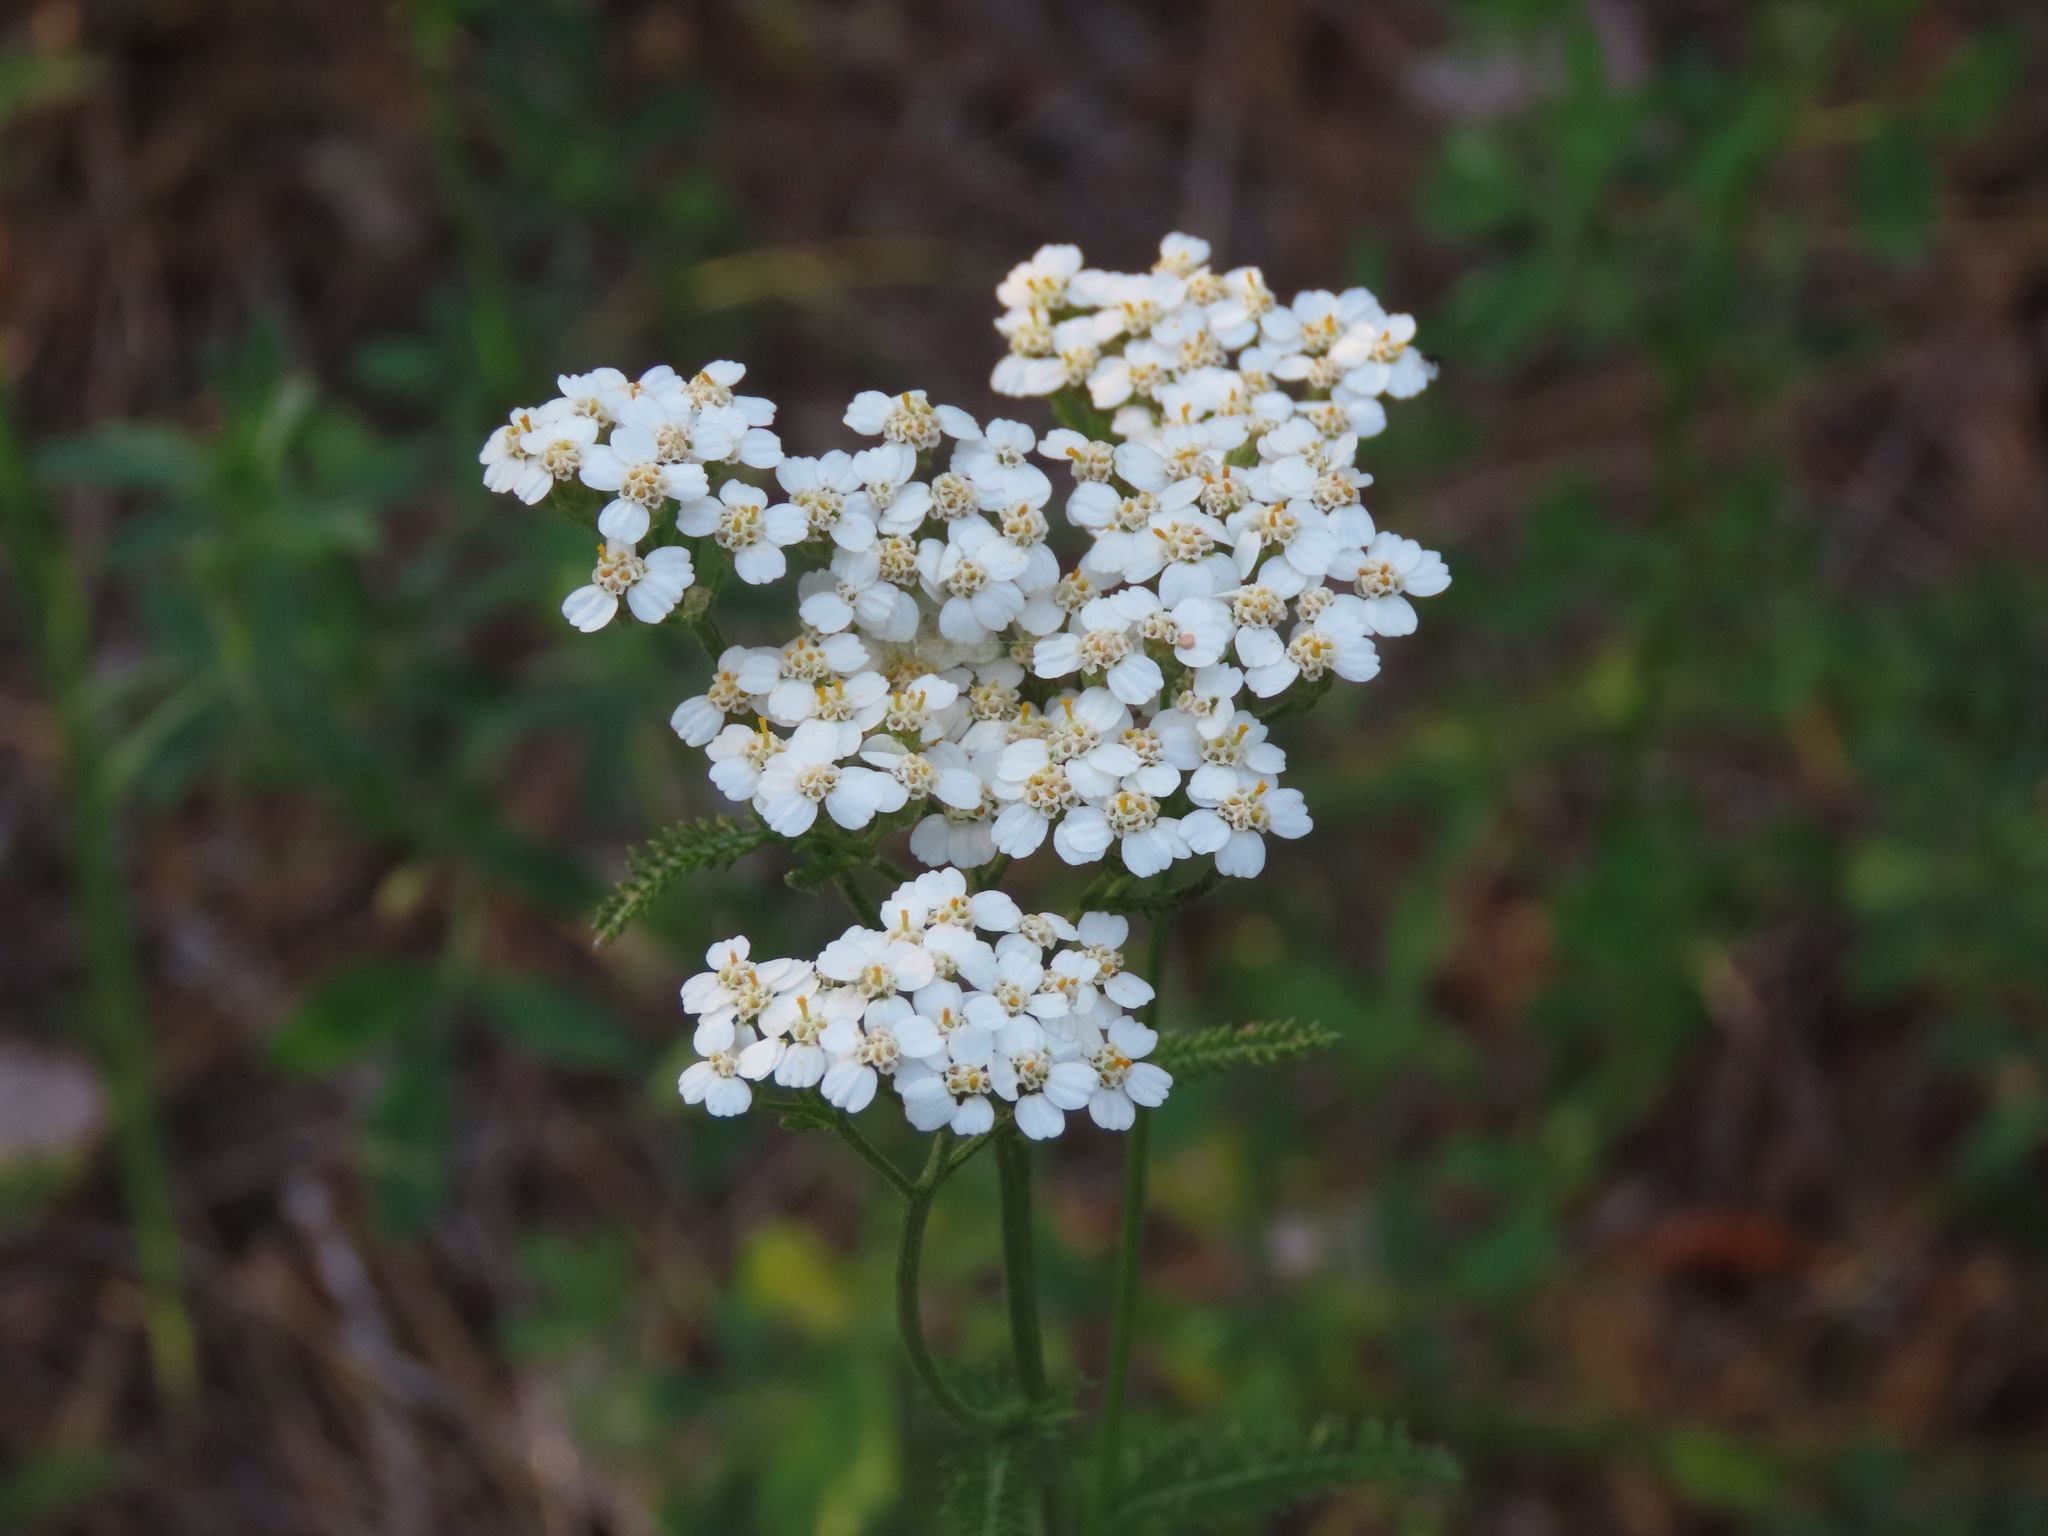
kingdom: Plantae
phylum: Tracheophyta
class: Magnoliopsida
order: Asterales
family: Asteraceae
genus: Achillea
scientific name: Achillea millefolium
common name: Yarrow
